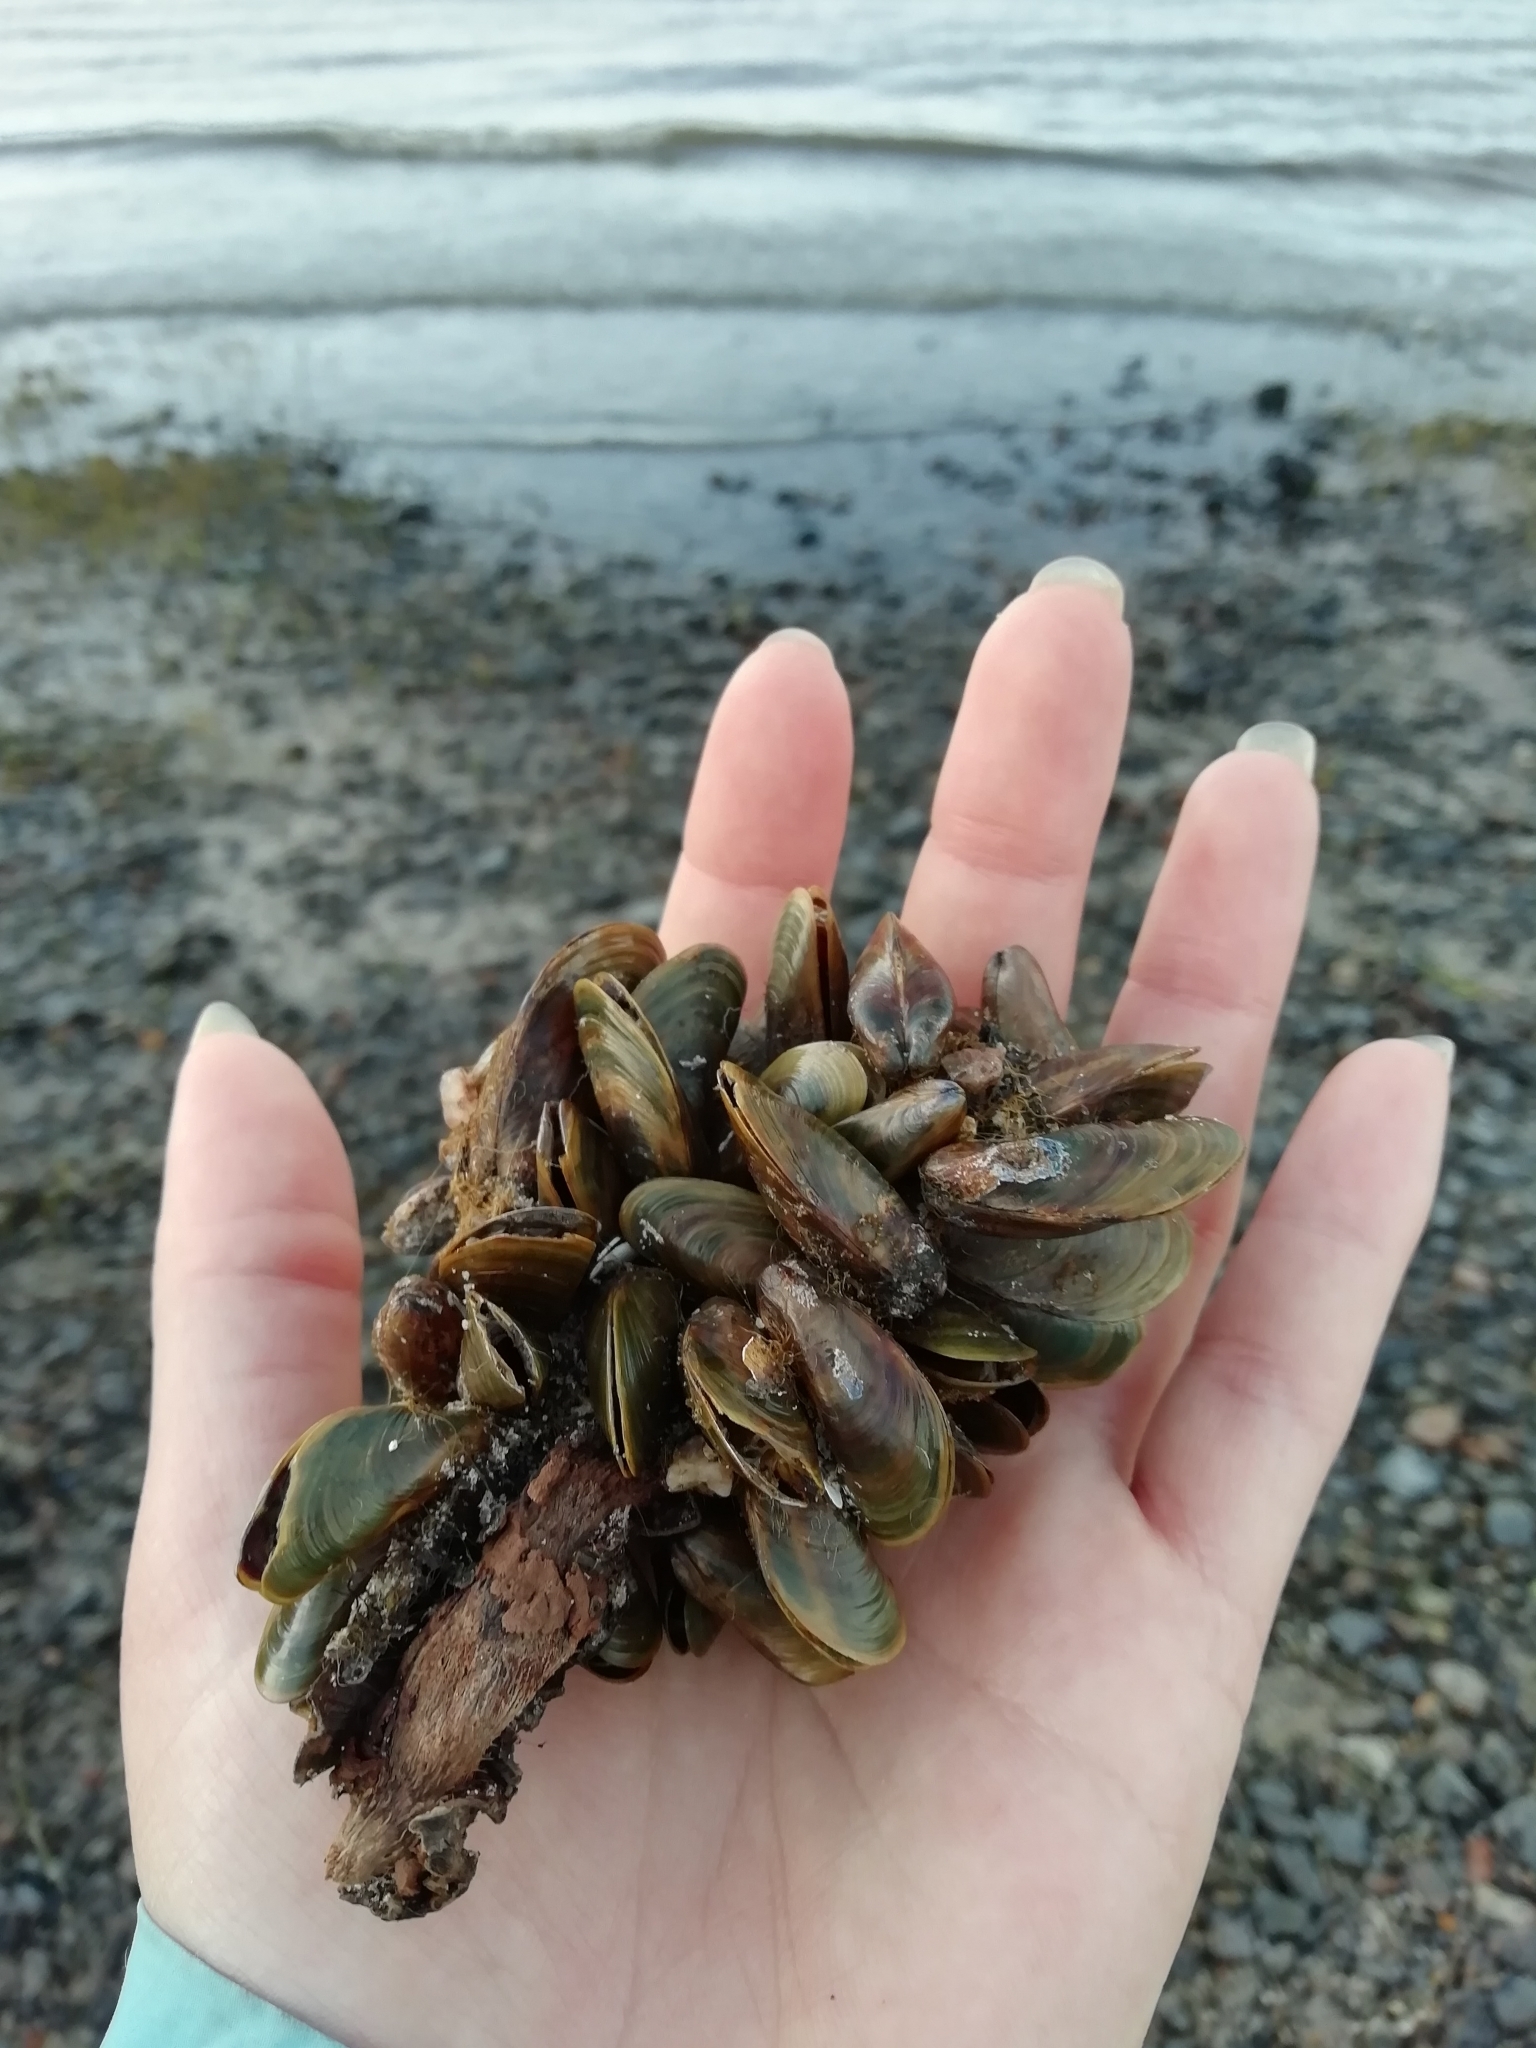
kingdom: Animalia
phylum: Mollusca
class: Bivalvia
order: Mytilida
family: Mytilidae
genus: Limnoperna
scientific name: Limnoperna fortunei
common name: Golden mussel
